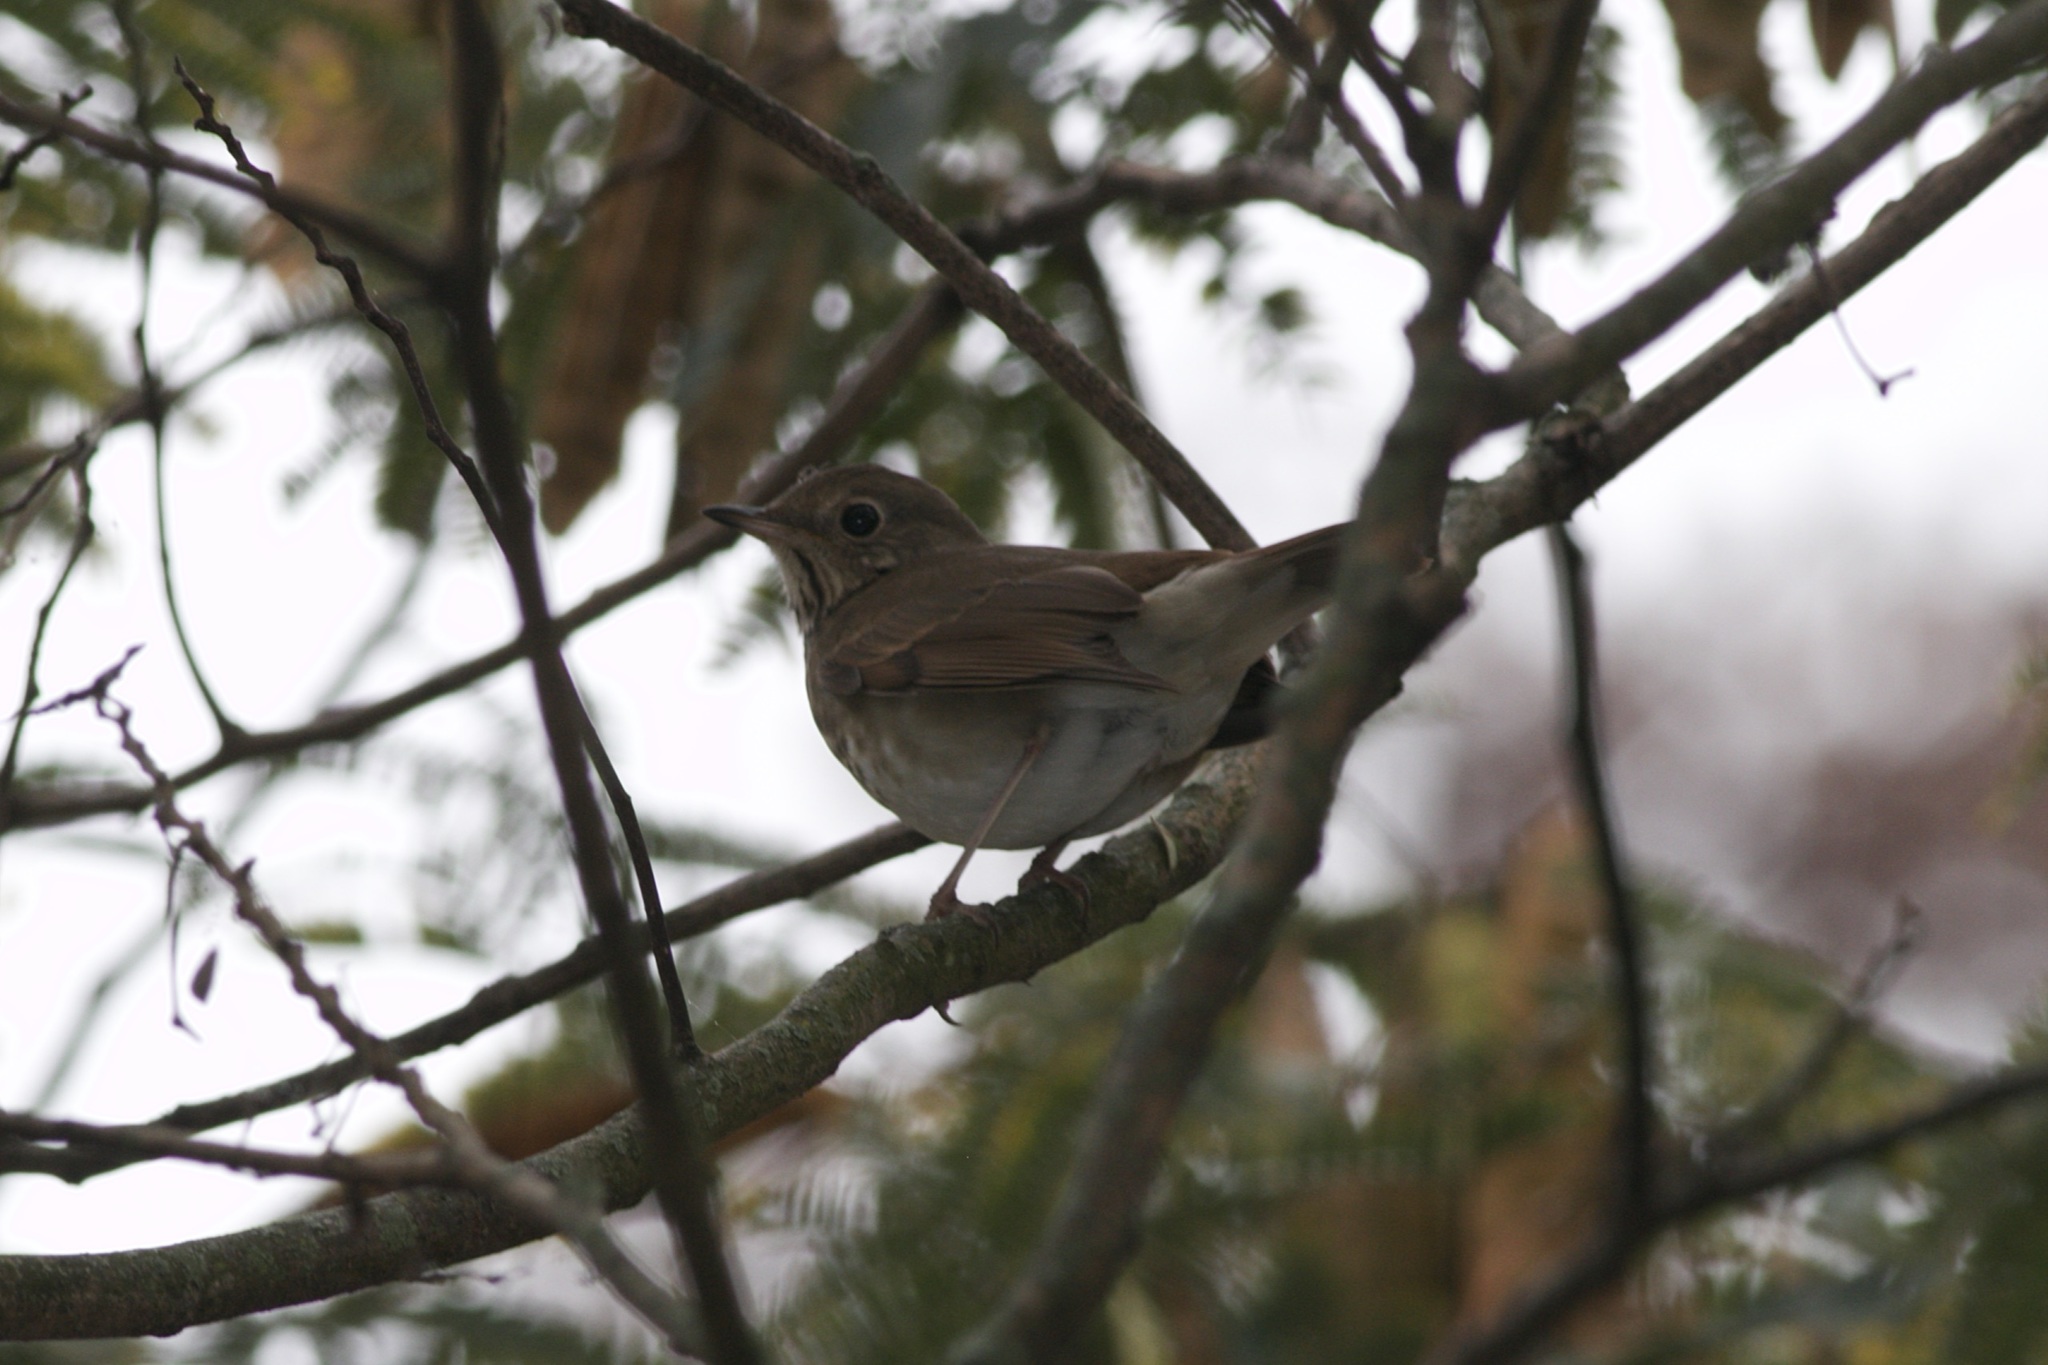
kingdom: Animalia
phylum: Chordata
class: Aves
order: Passeriformes
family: Turdidae
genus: Catharus
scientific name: Catharus guttatus
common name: Hermit thrush
